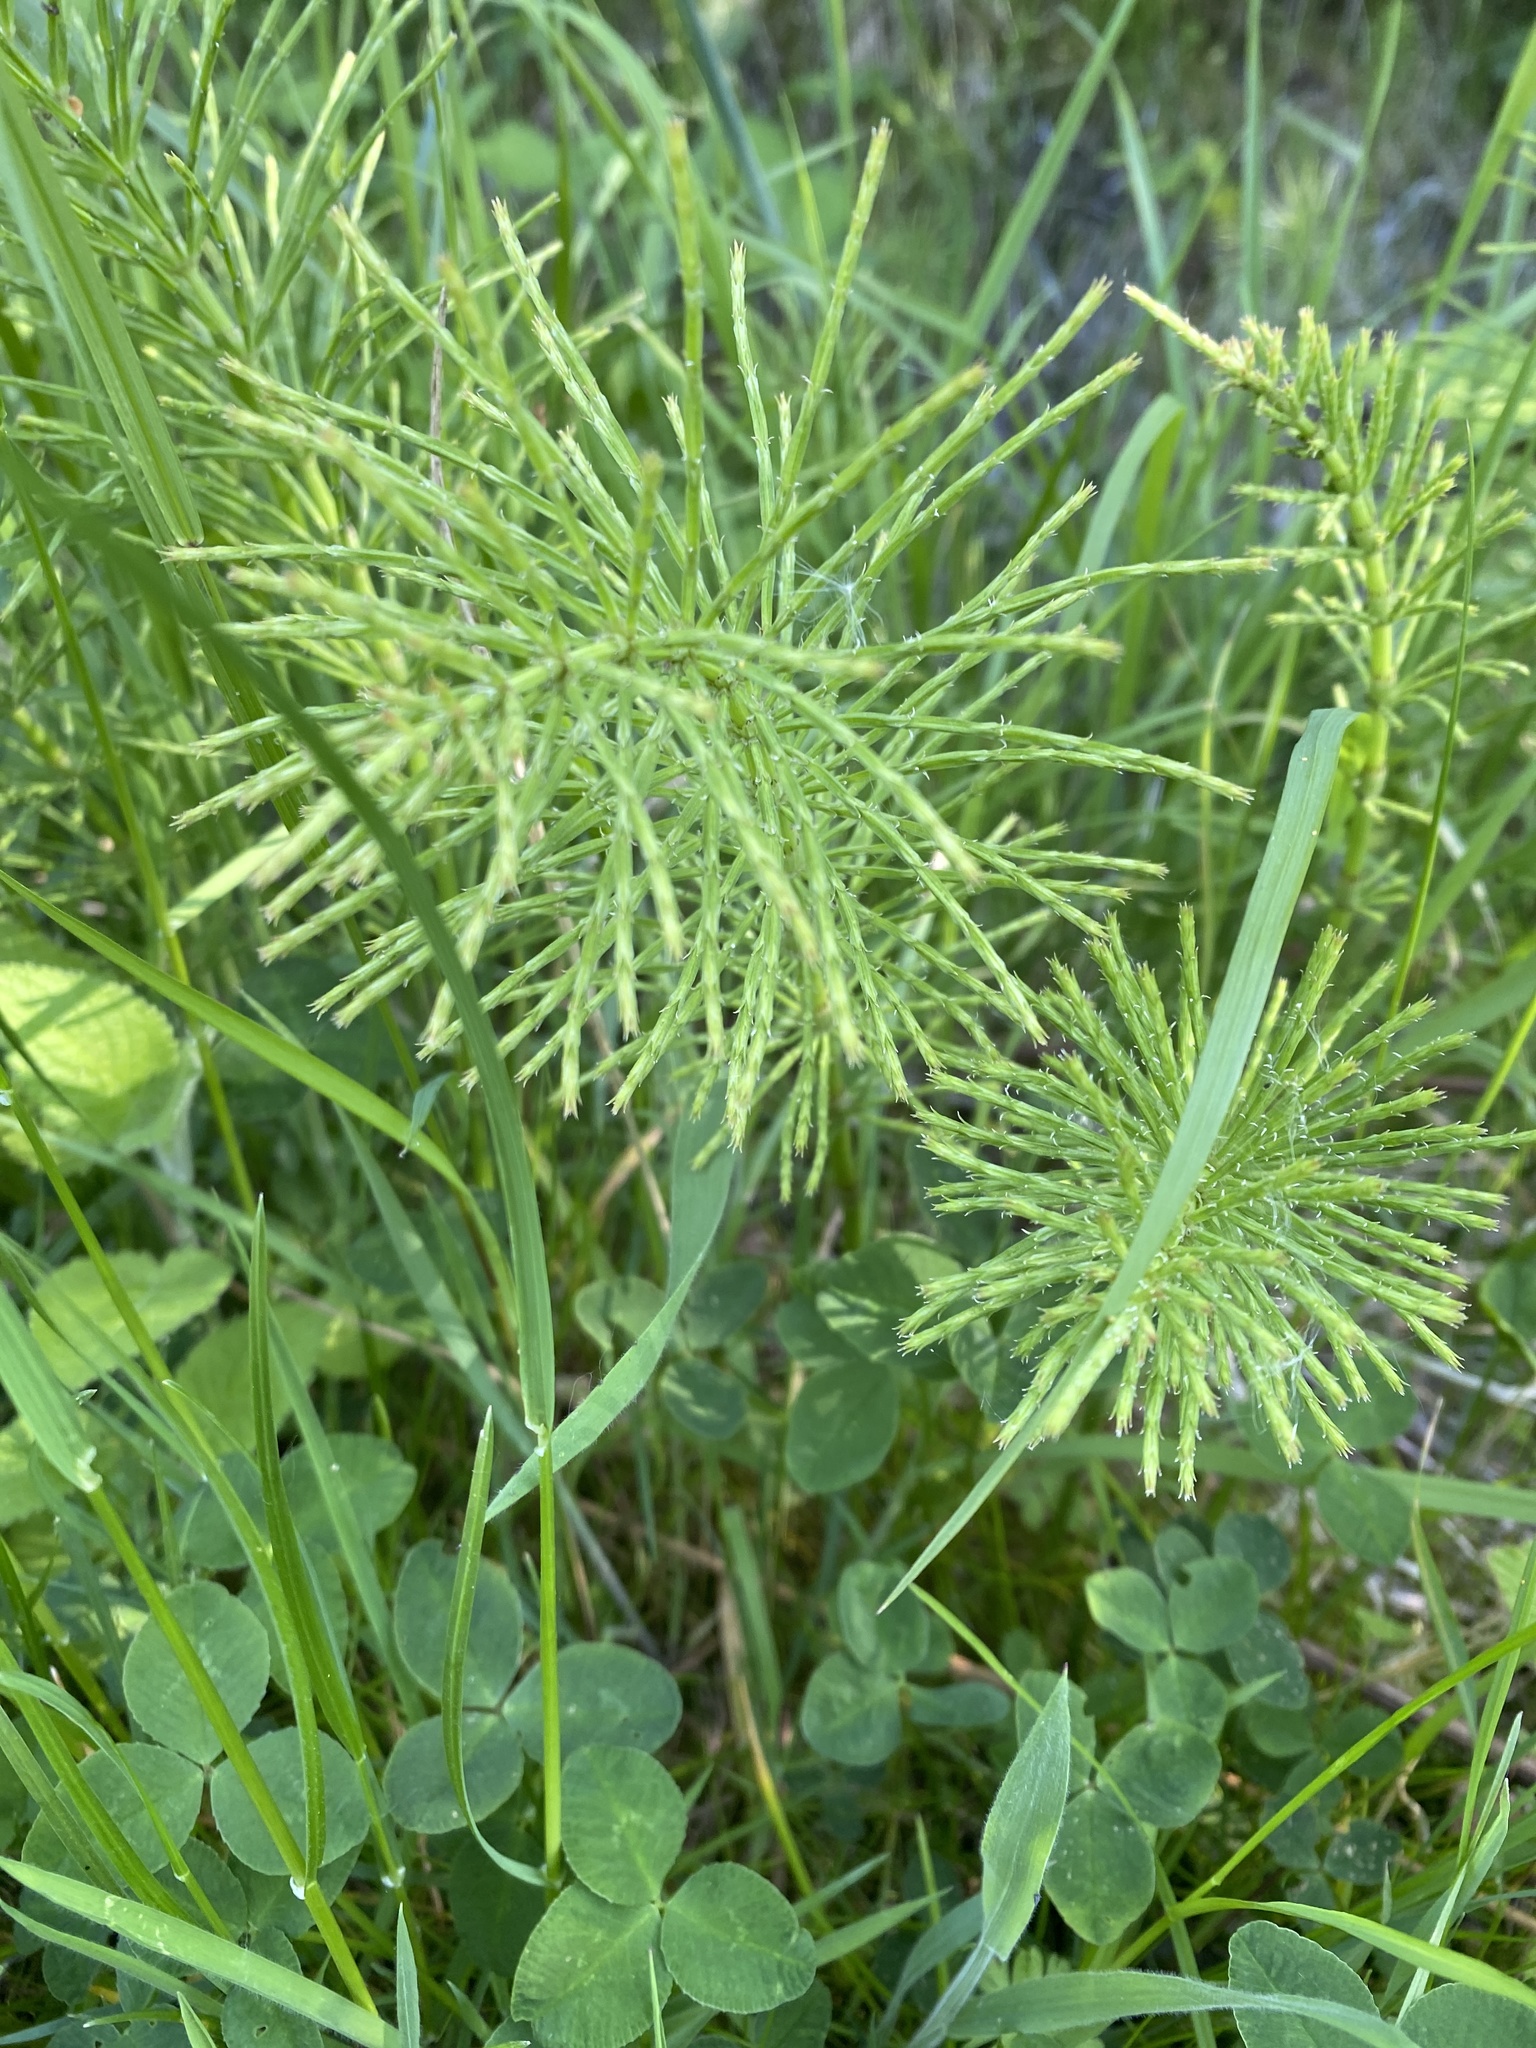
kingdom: Plantae
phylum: Tracheophyta
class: Polypodiopsida
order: Equisetales
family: Equisetaceae
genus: Equisetum
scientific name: Equisetum arvense
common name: Field horsetail
